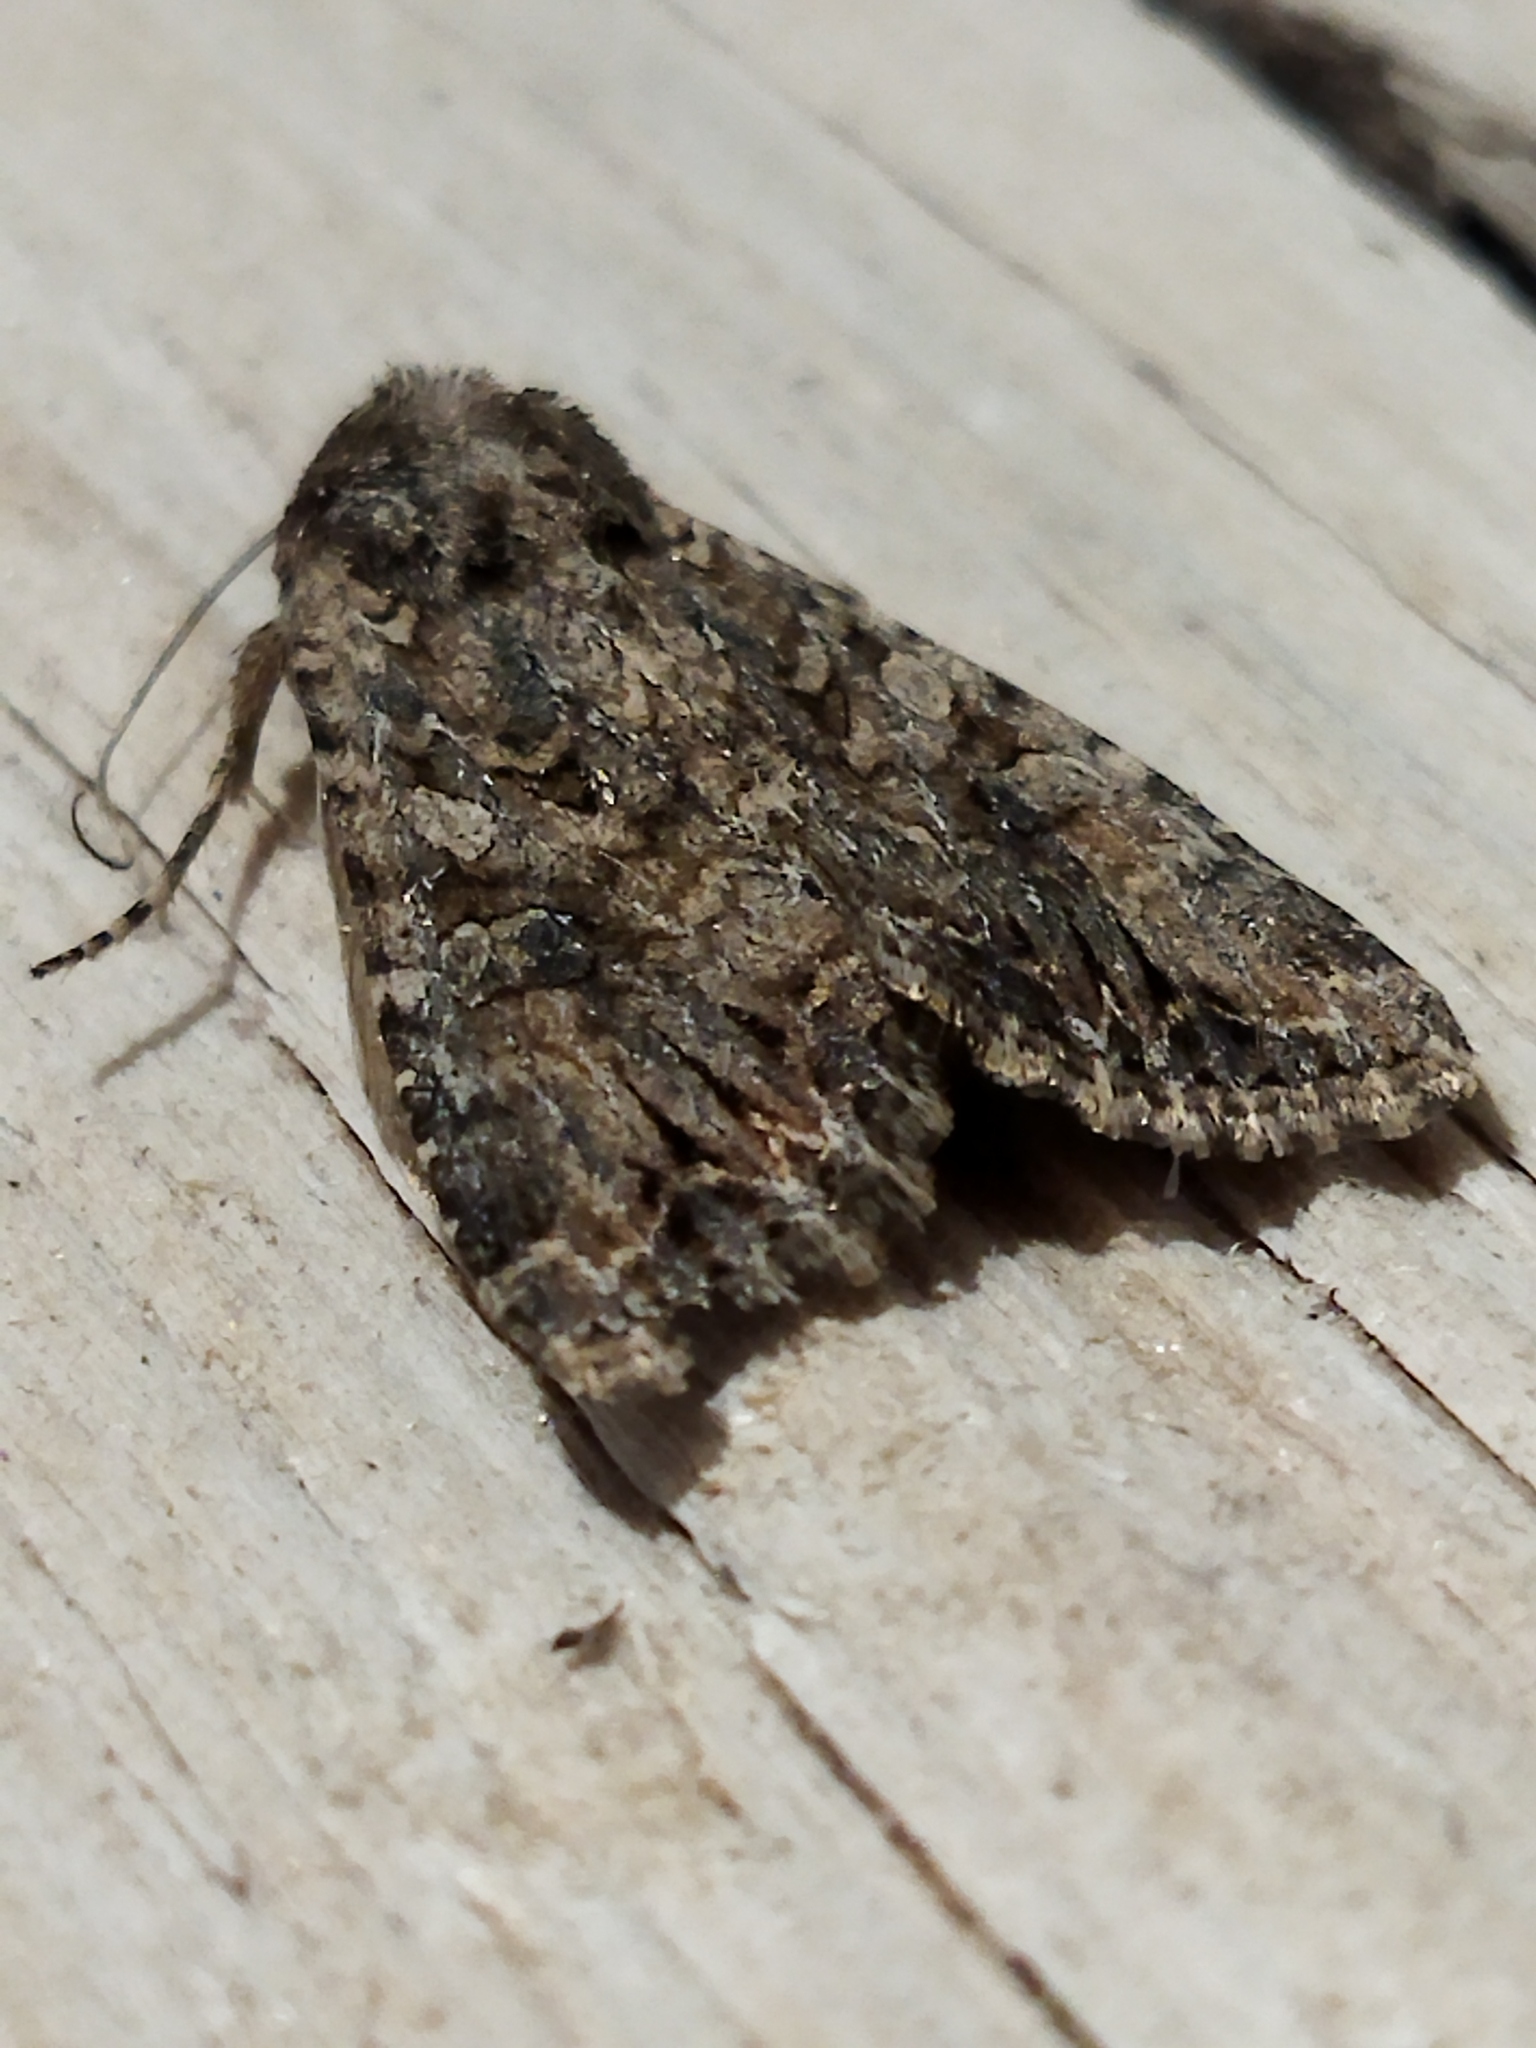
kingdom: Animalia
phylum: Arthropoda
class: Insecta
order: Lepidoptera
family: Noctuidae
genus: Anarta
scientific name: Anarta trifolii
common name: Clover cutworm moth
